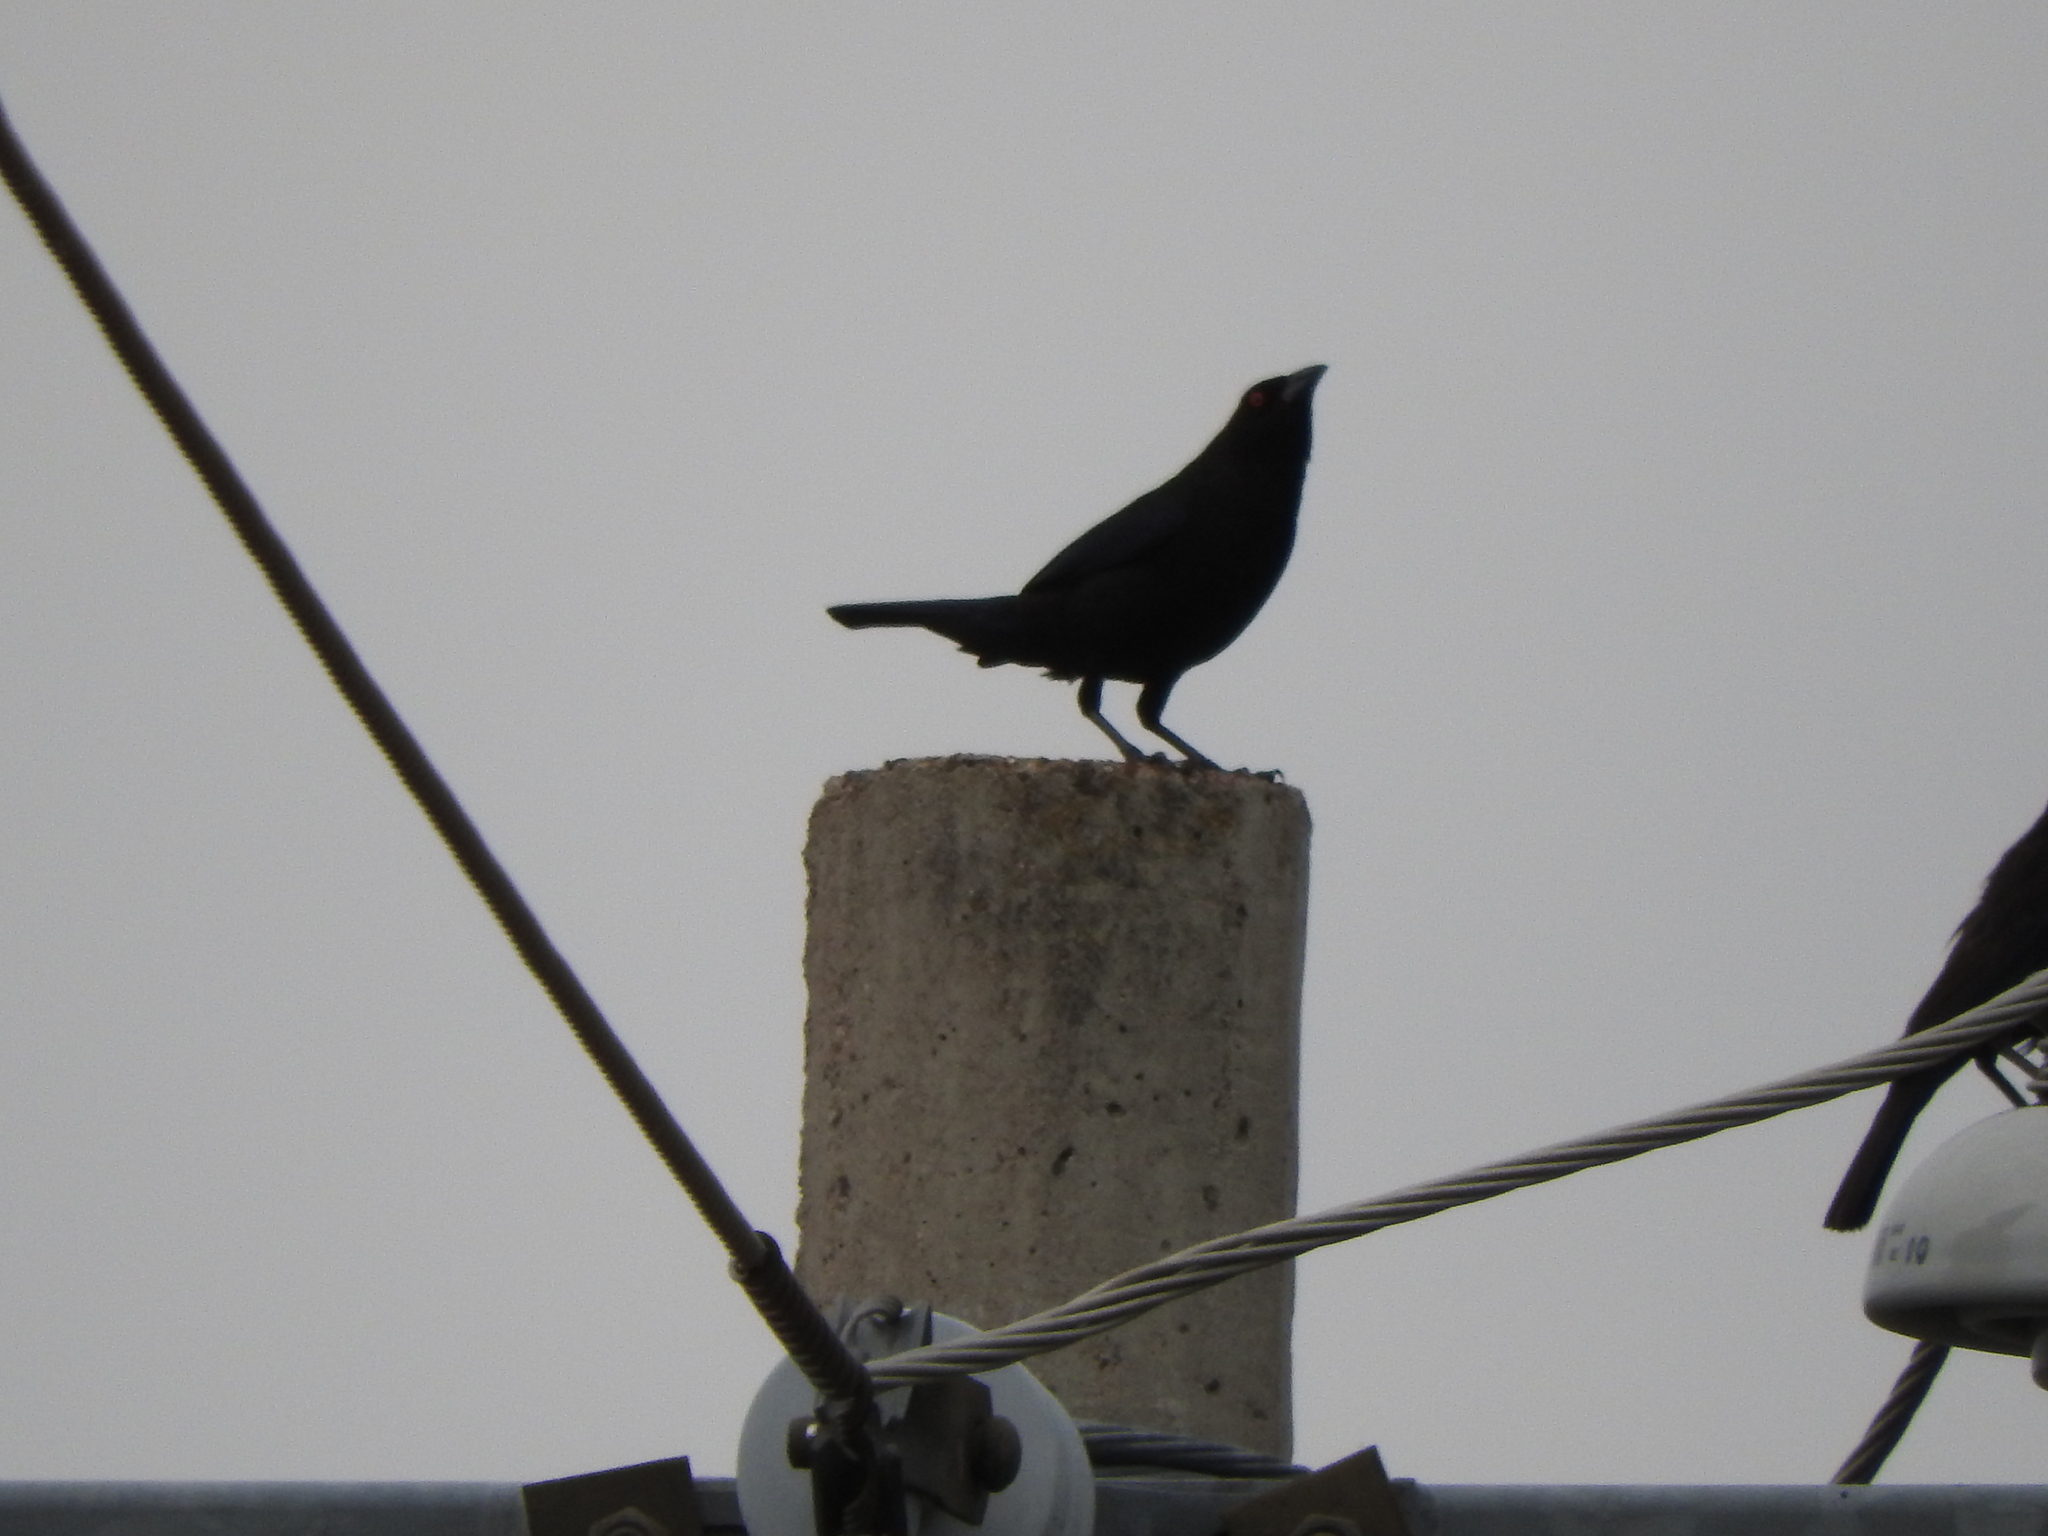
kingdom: Animalia
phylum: Chordata
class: Aves
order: Passeriformes
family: Icteridae
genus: Molothrus
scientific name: Molothrus aeneus
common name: Bronzed cowbird
